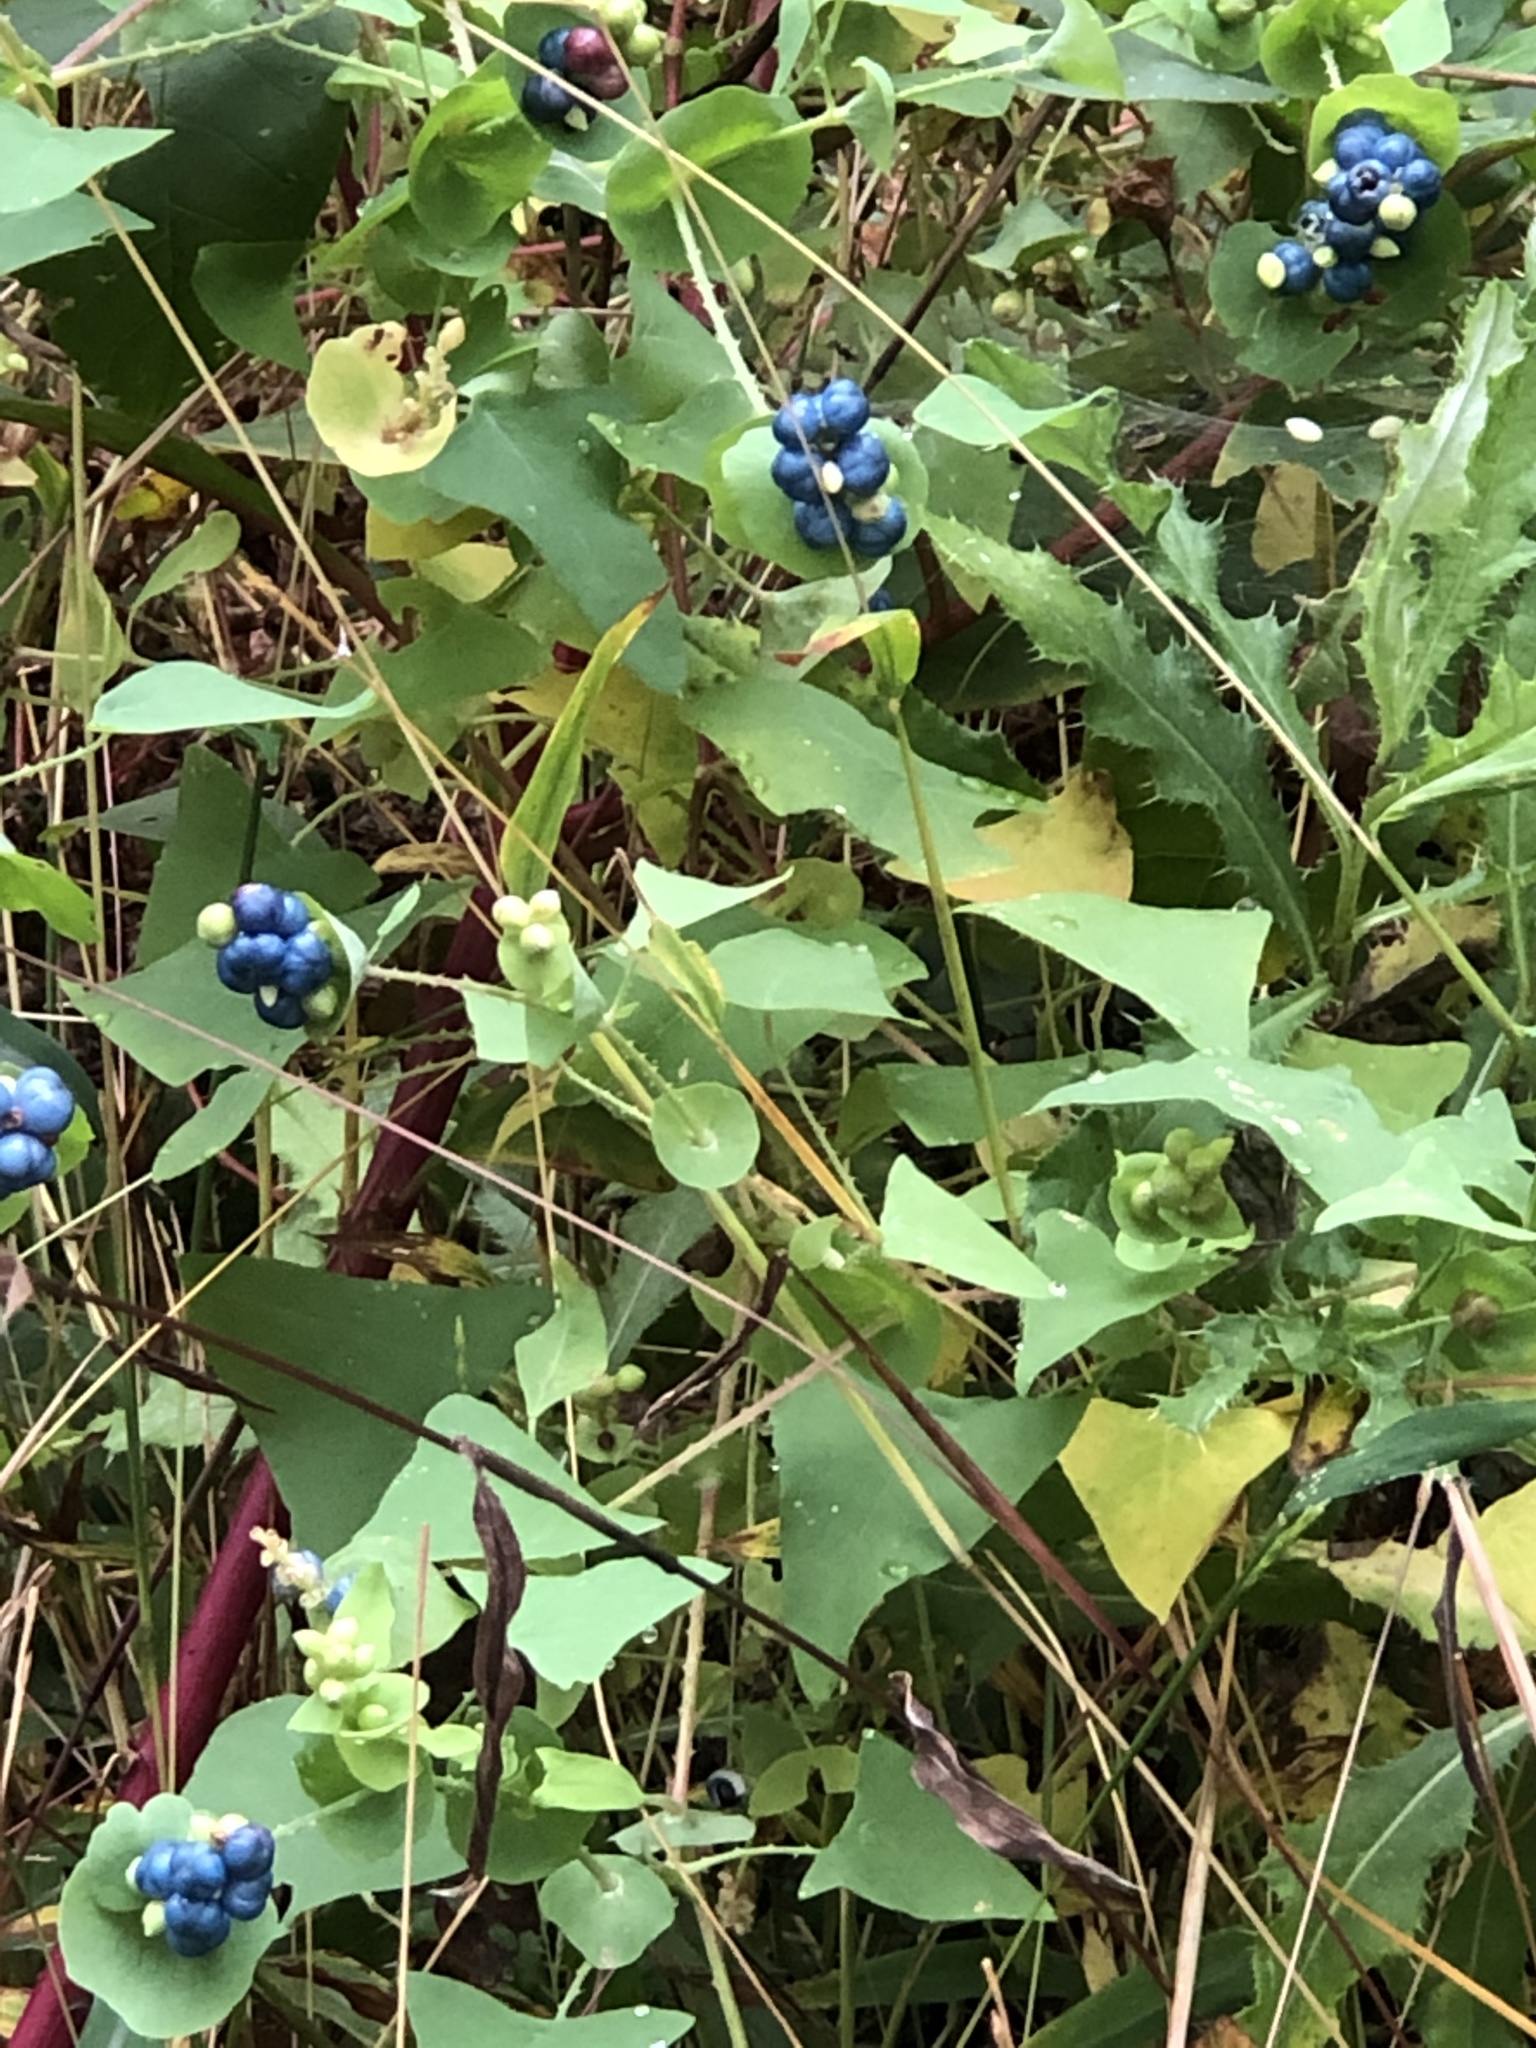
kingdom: Plantae
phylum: Tracheophyta
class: Magnoliopsida
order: Caryophyllales
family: Polygonaceae
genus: Persicaria
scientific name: Persicaria perfoliata
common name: Asiatic tearthumb
